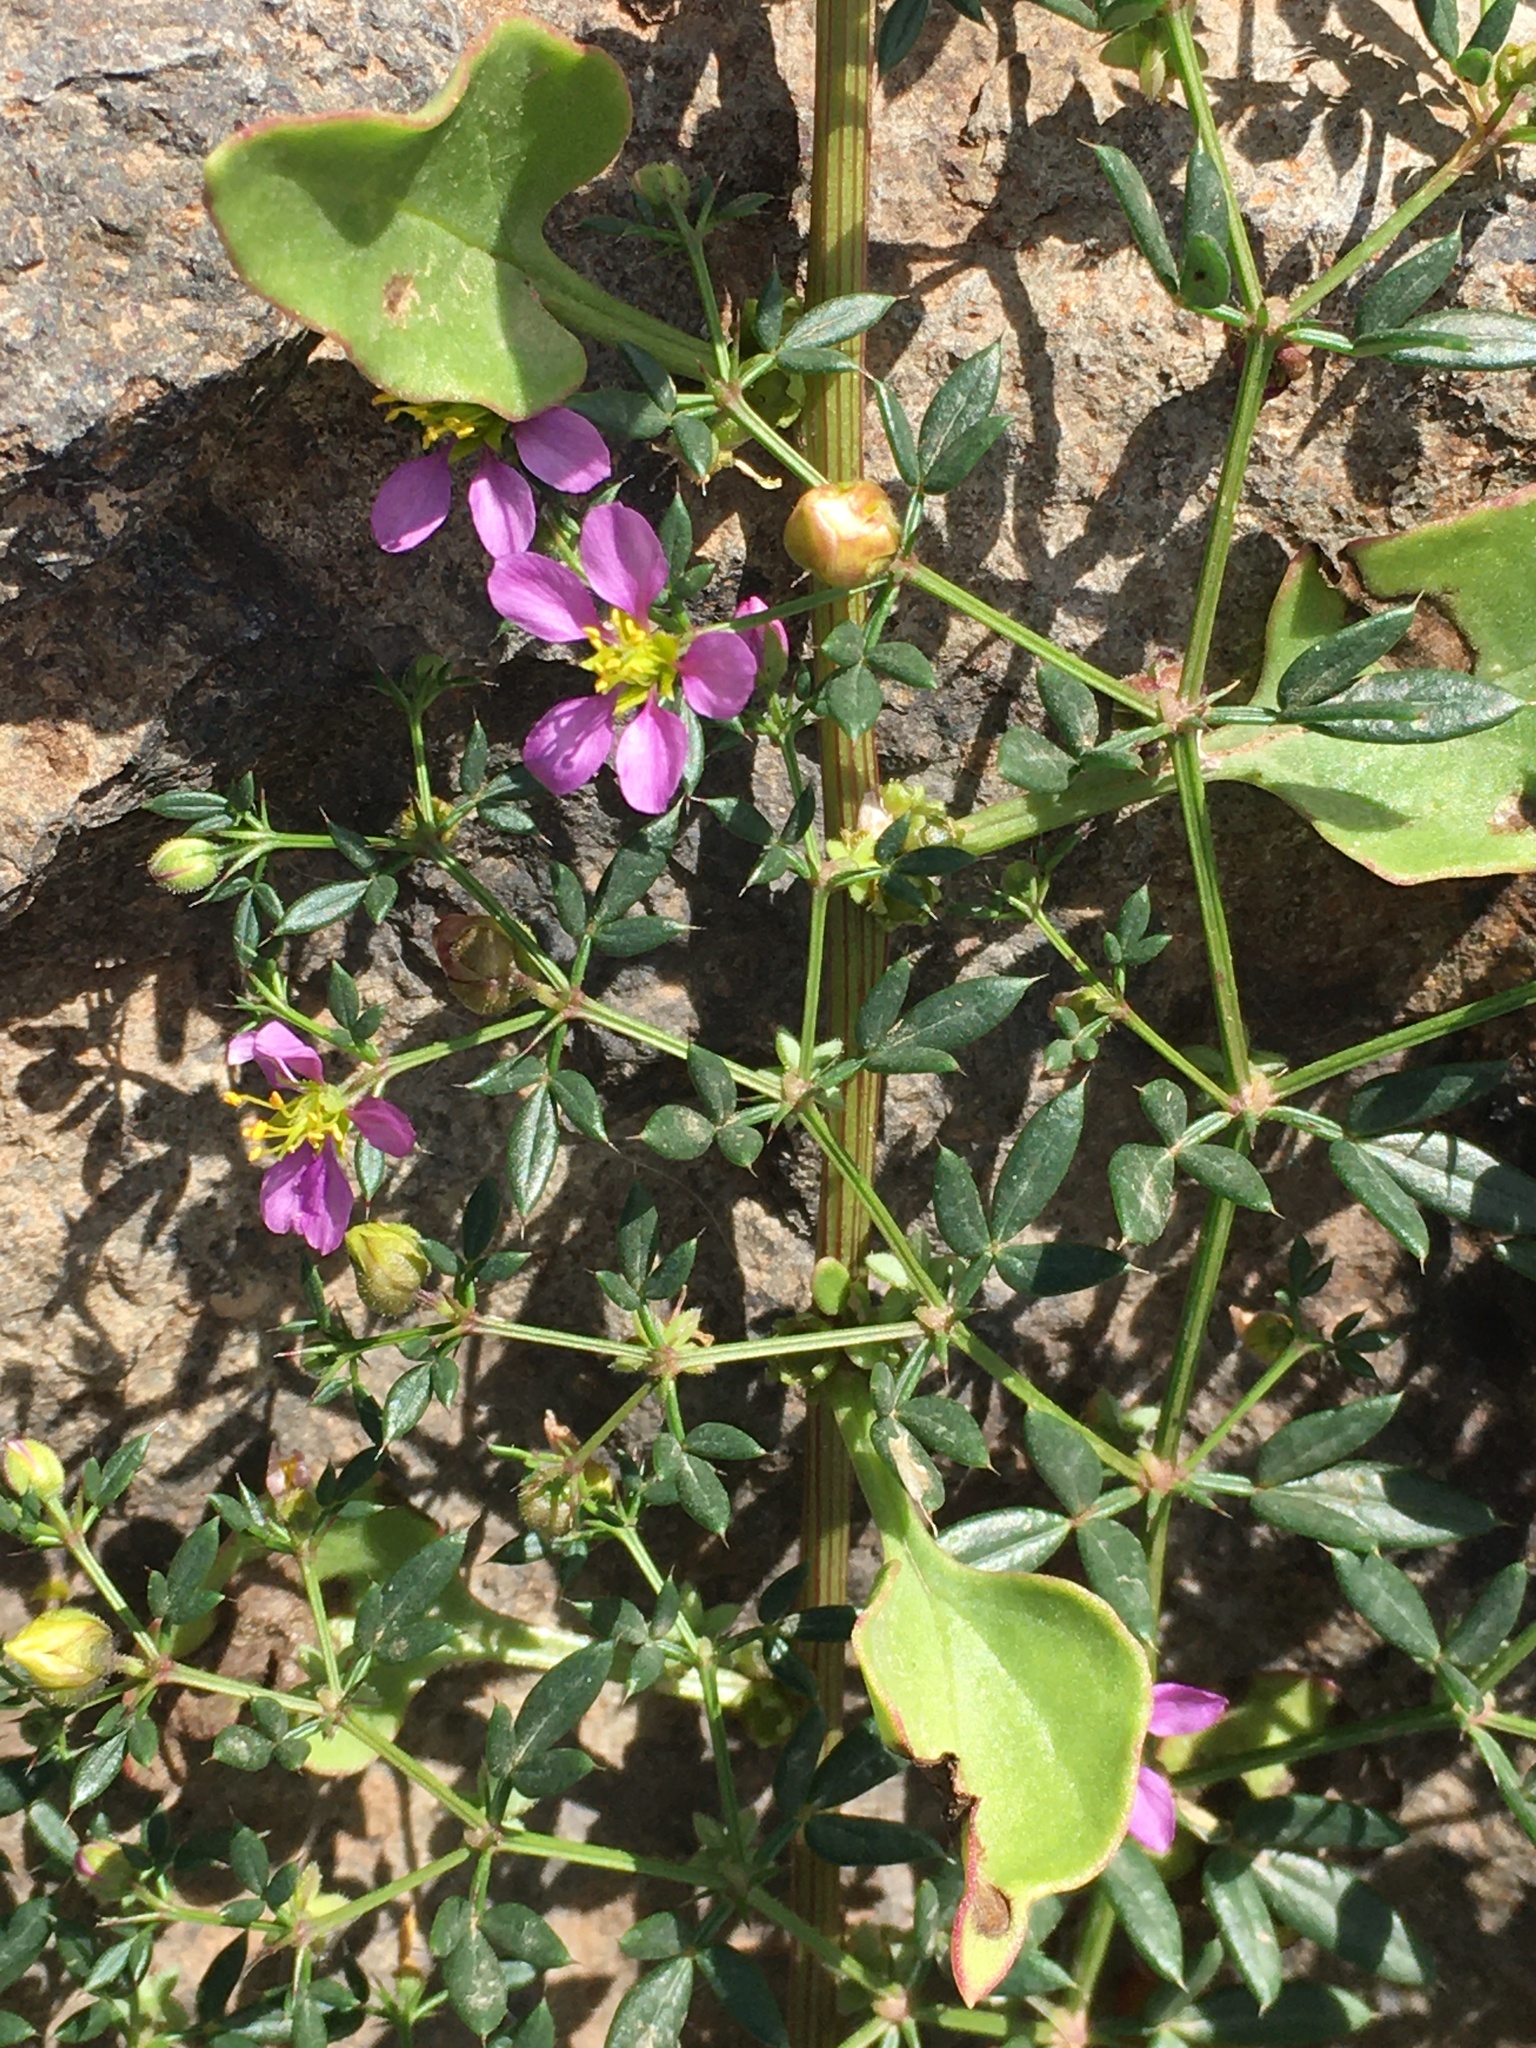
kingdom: Plantae
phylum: Tracheophyta
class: Magnoliopsida
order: Zygophyllales
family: Zygophyllaceae
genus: Fagonia
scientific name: Fagonia cretica
